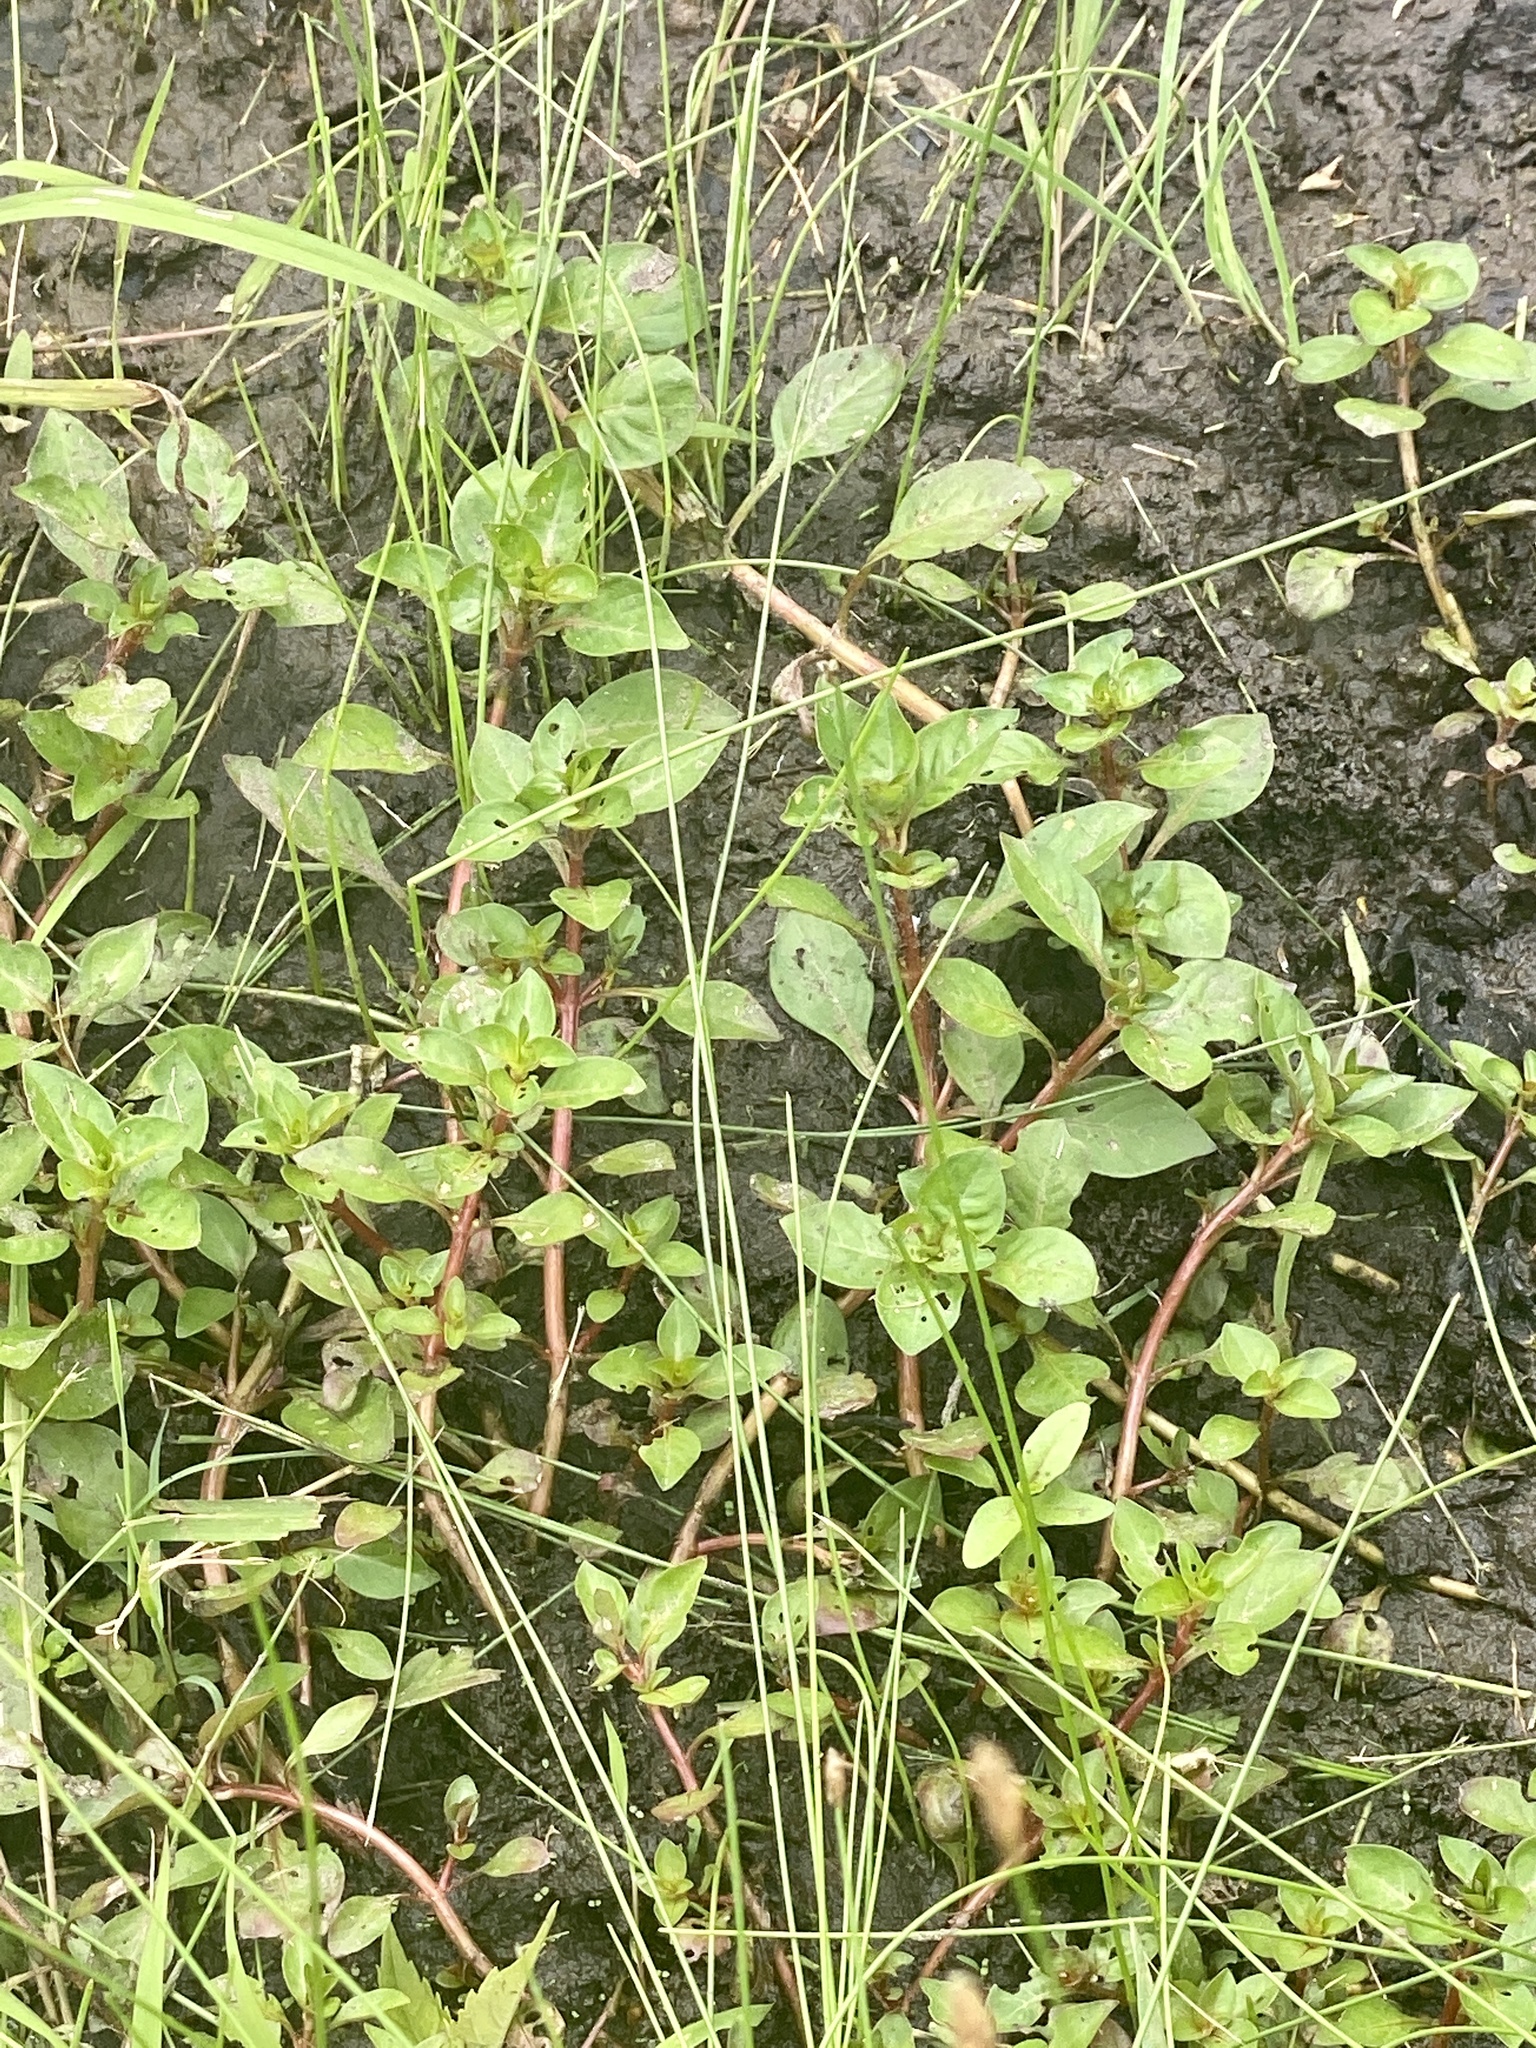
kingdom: Plantae
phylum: Tracheophyta
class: Magnoliopsida
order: Myrtales
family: Onagraceae
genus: Ludwigia
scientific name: Ludwigia palustris
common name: Hampshire-purslane
